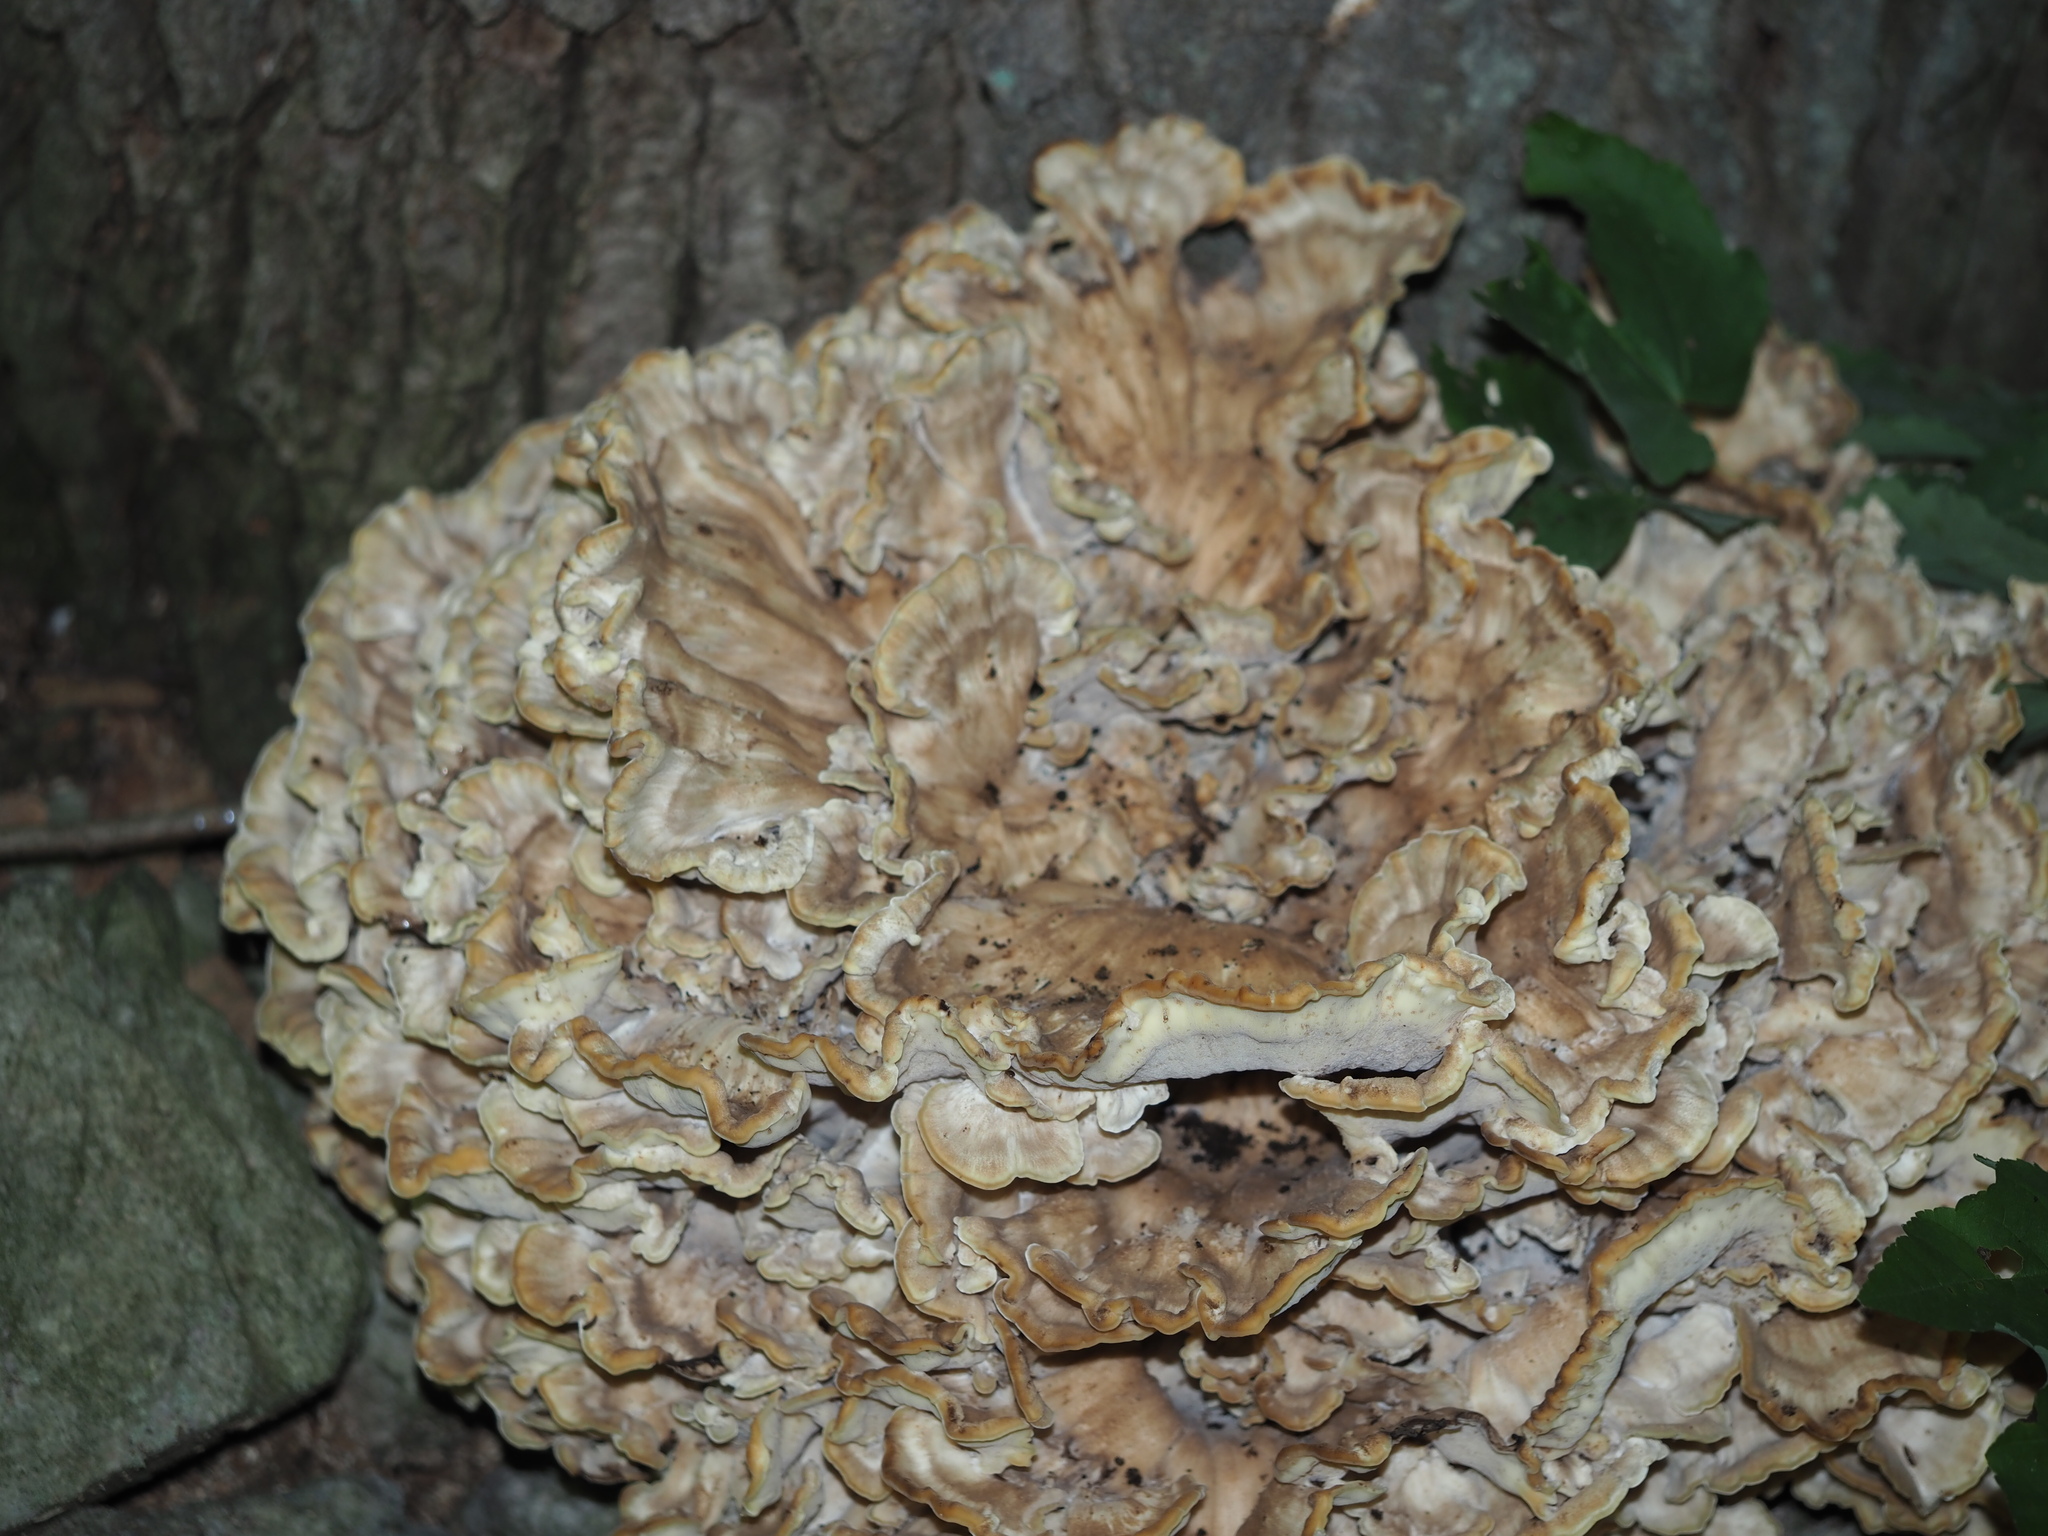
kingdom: Fungi
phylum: Basidiomycota
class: Agaricomycetes
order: Polyporales
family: Meripilaceae
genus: Meripilus
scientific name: Meripilus sumstinei
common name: Black-staining polypore
